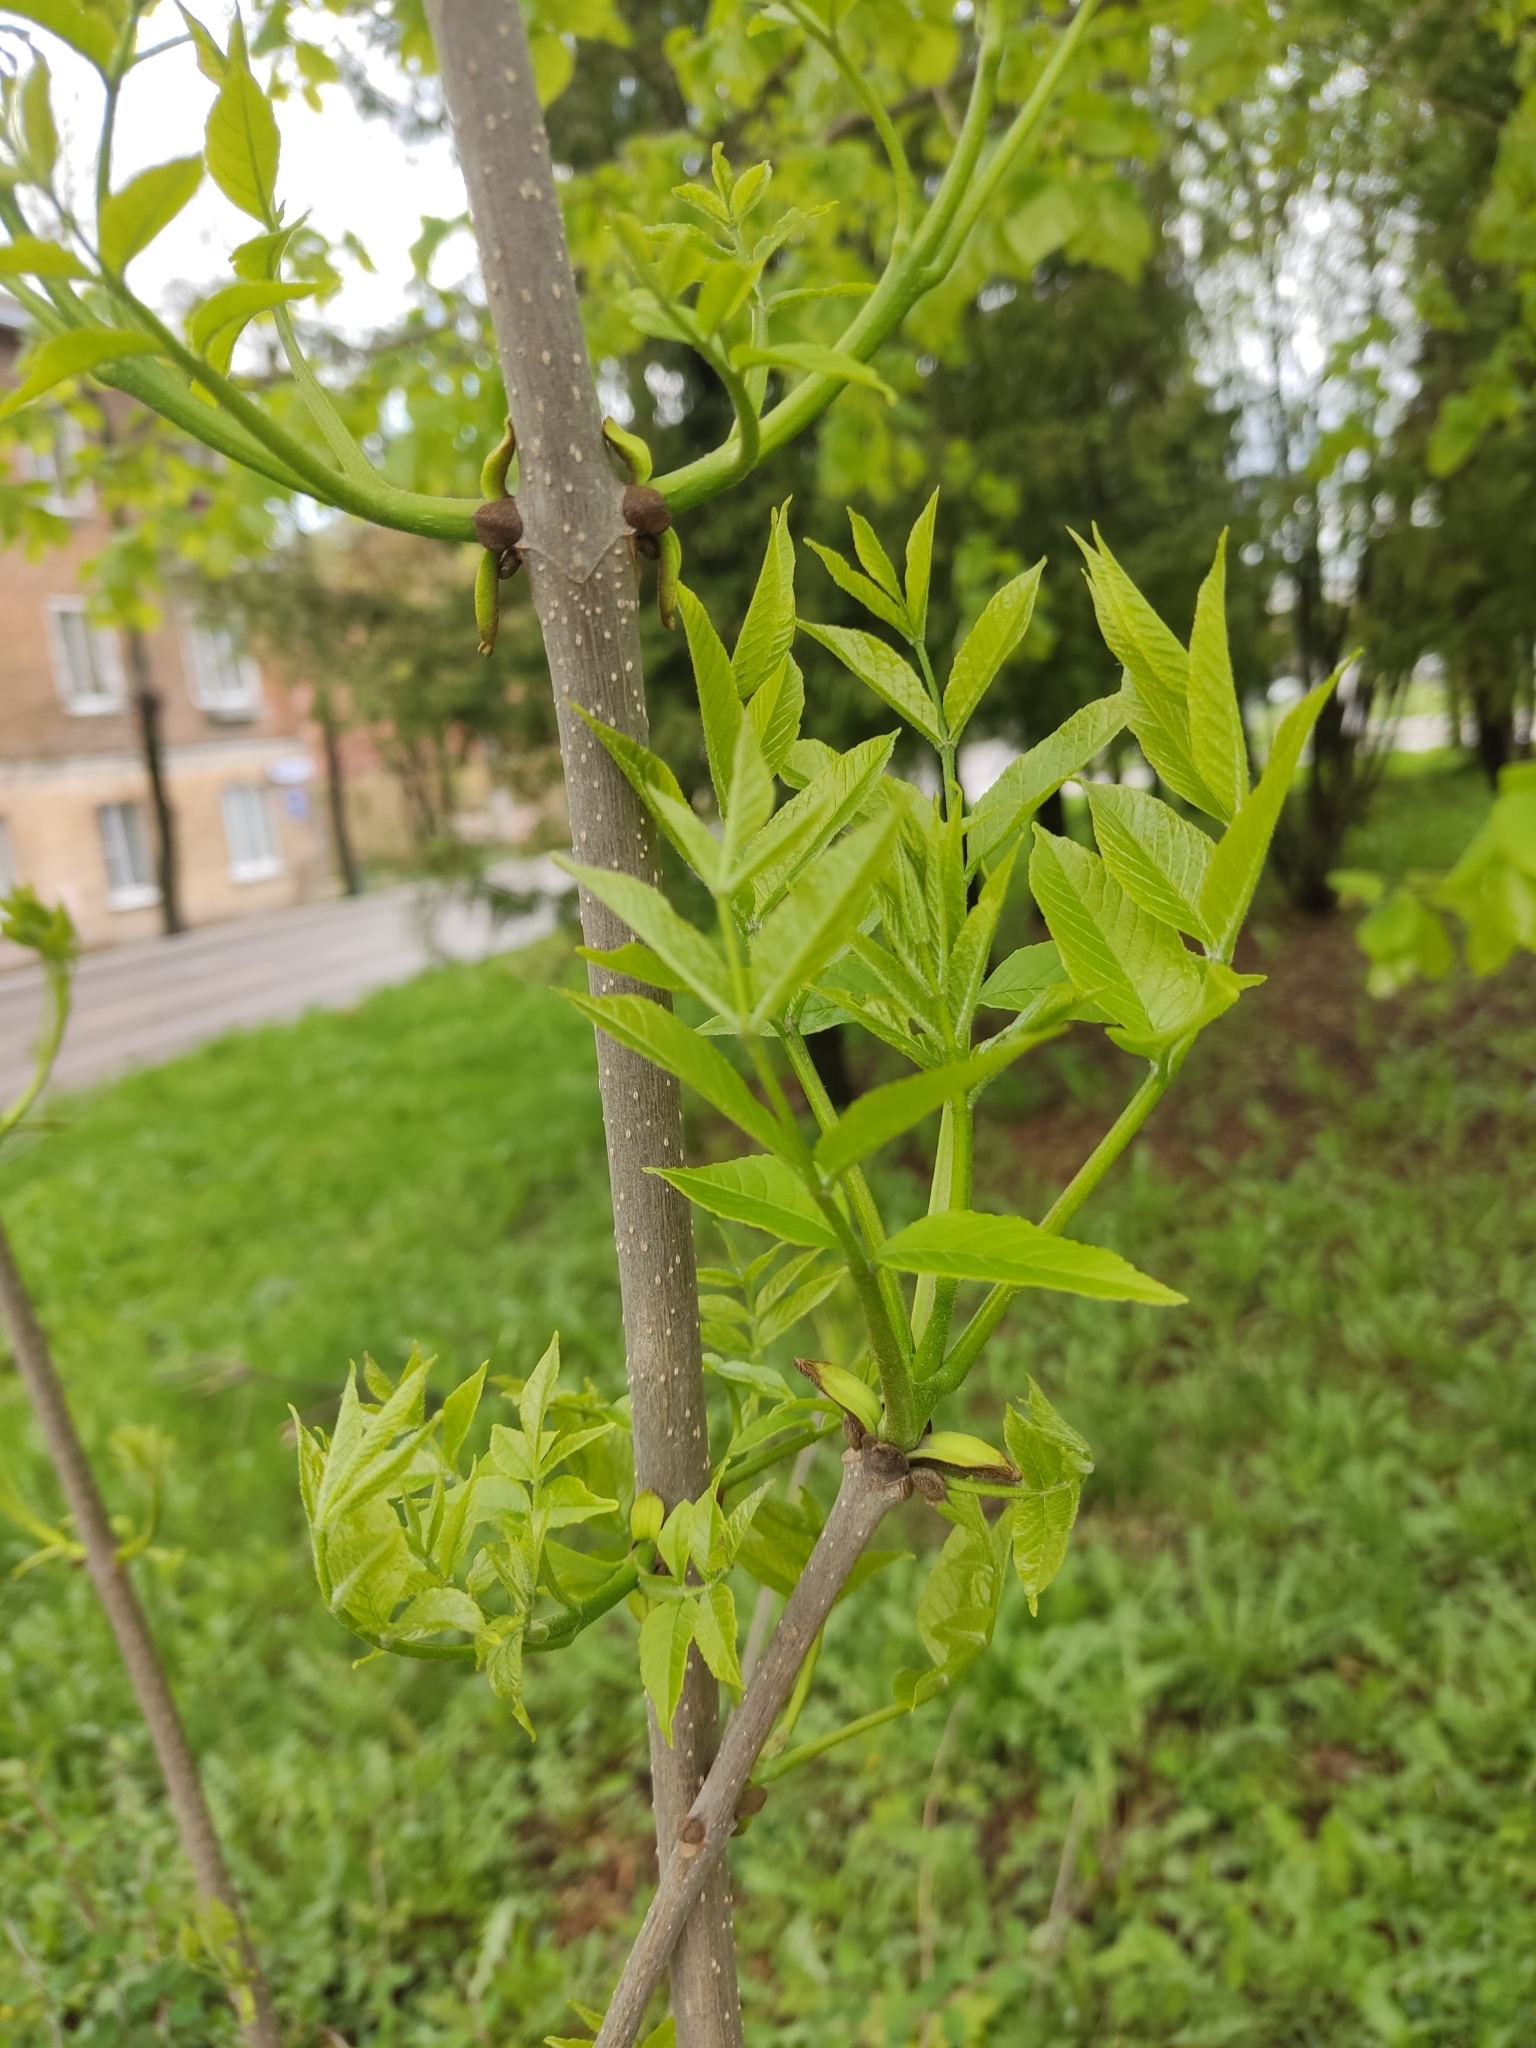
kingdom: Plantae
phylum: Tracheophyta
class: Magnoliopsida
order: Lamiales
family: Oleaceae
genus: Fraxinus
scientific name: Fraxinus pennsylvanica
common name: Green ash
